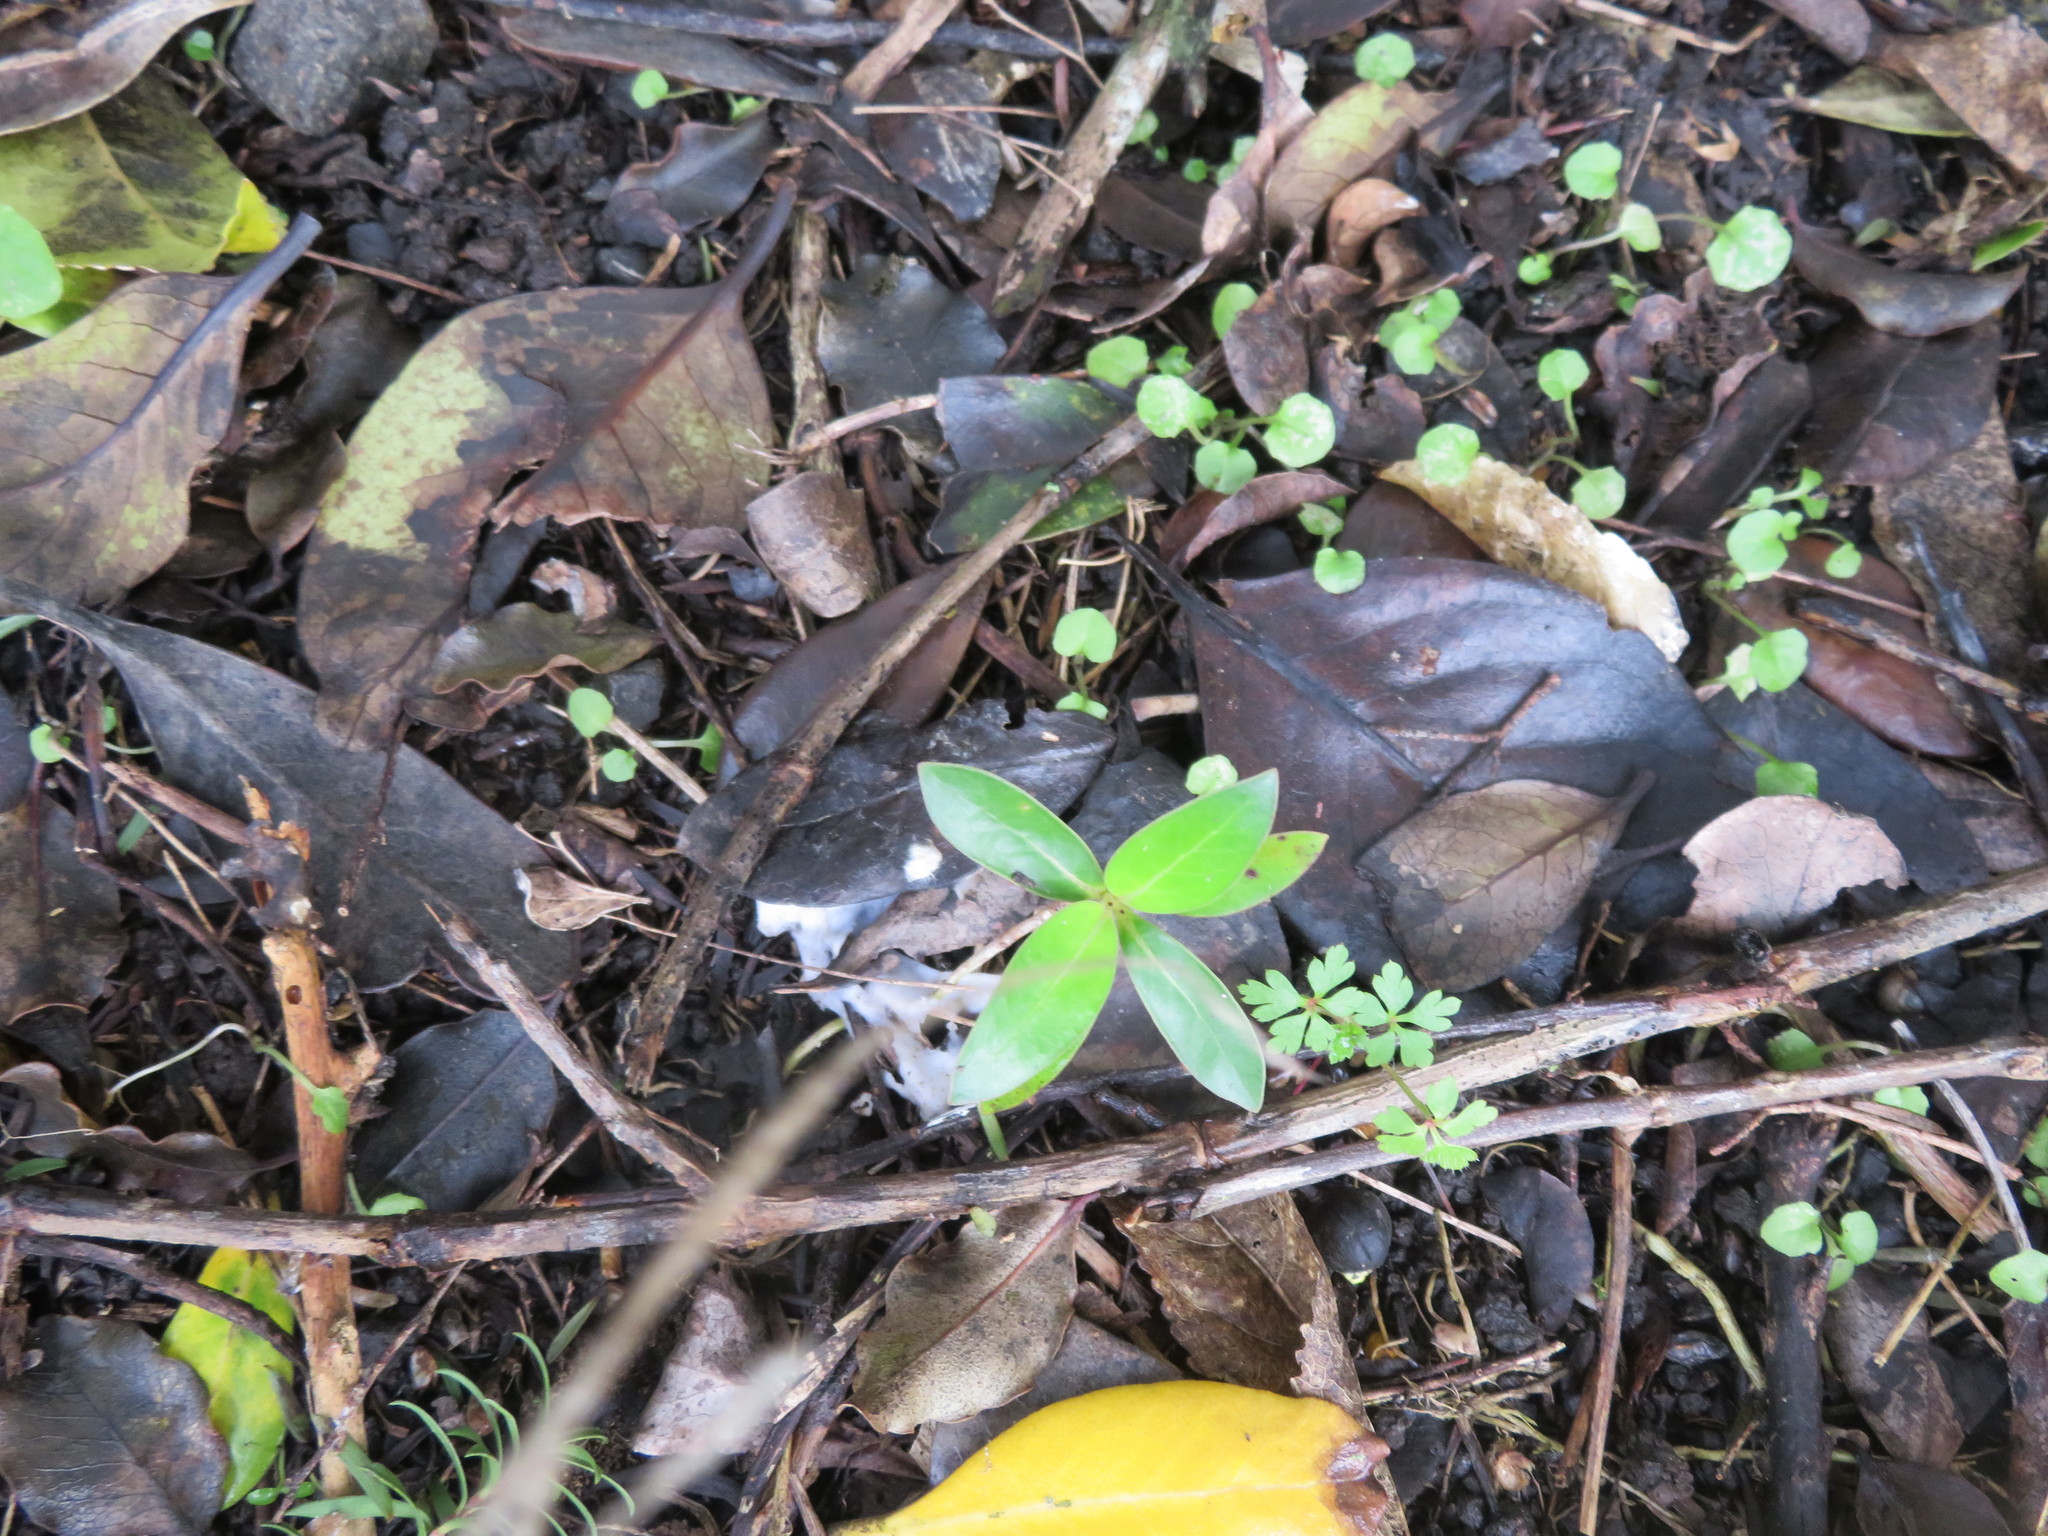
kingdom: Plantae
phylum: Tracheophyta
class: Magnoliopsida
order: Gentianales
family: Rubiaceae
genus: Coprosma
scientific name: Coprosma robusta
